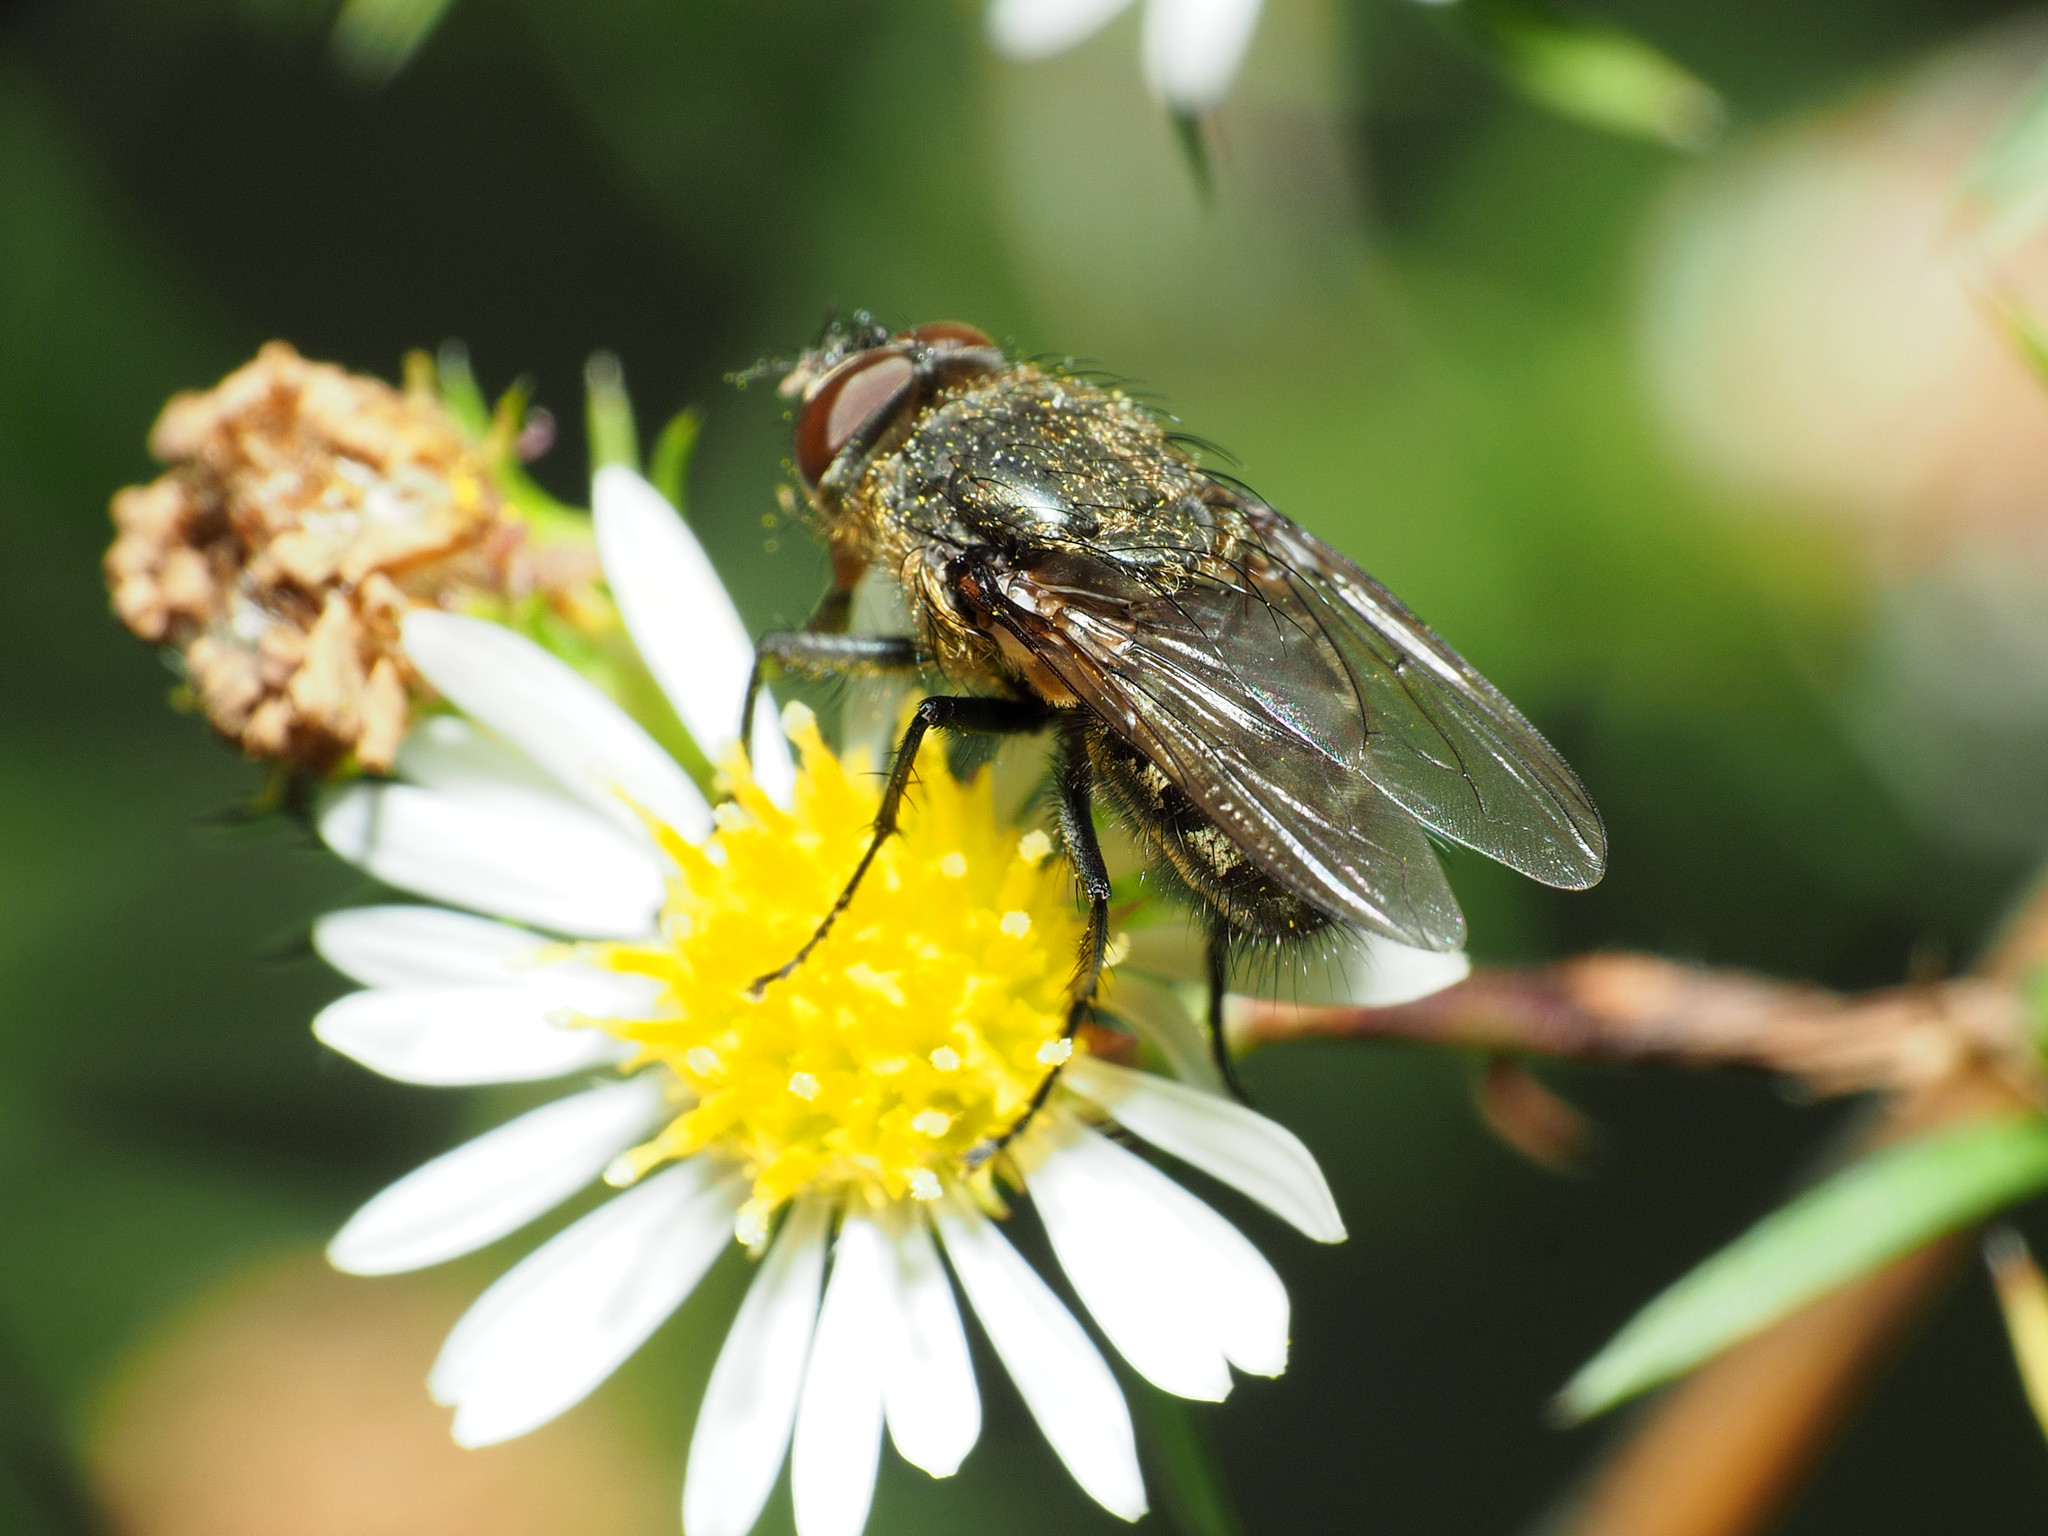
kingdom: Animalia
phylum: Arthropoda
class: Insecta
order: Diptera
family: Polleniidae
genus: Pollenia
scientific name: Pollenia
